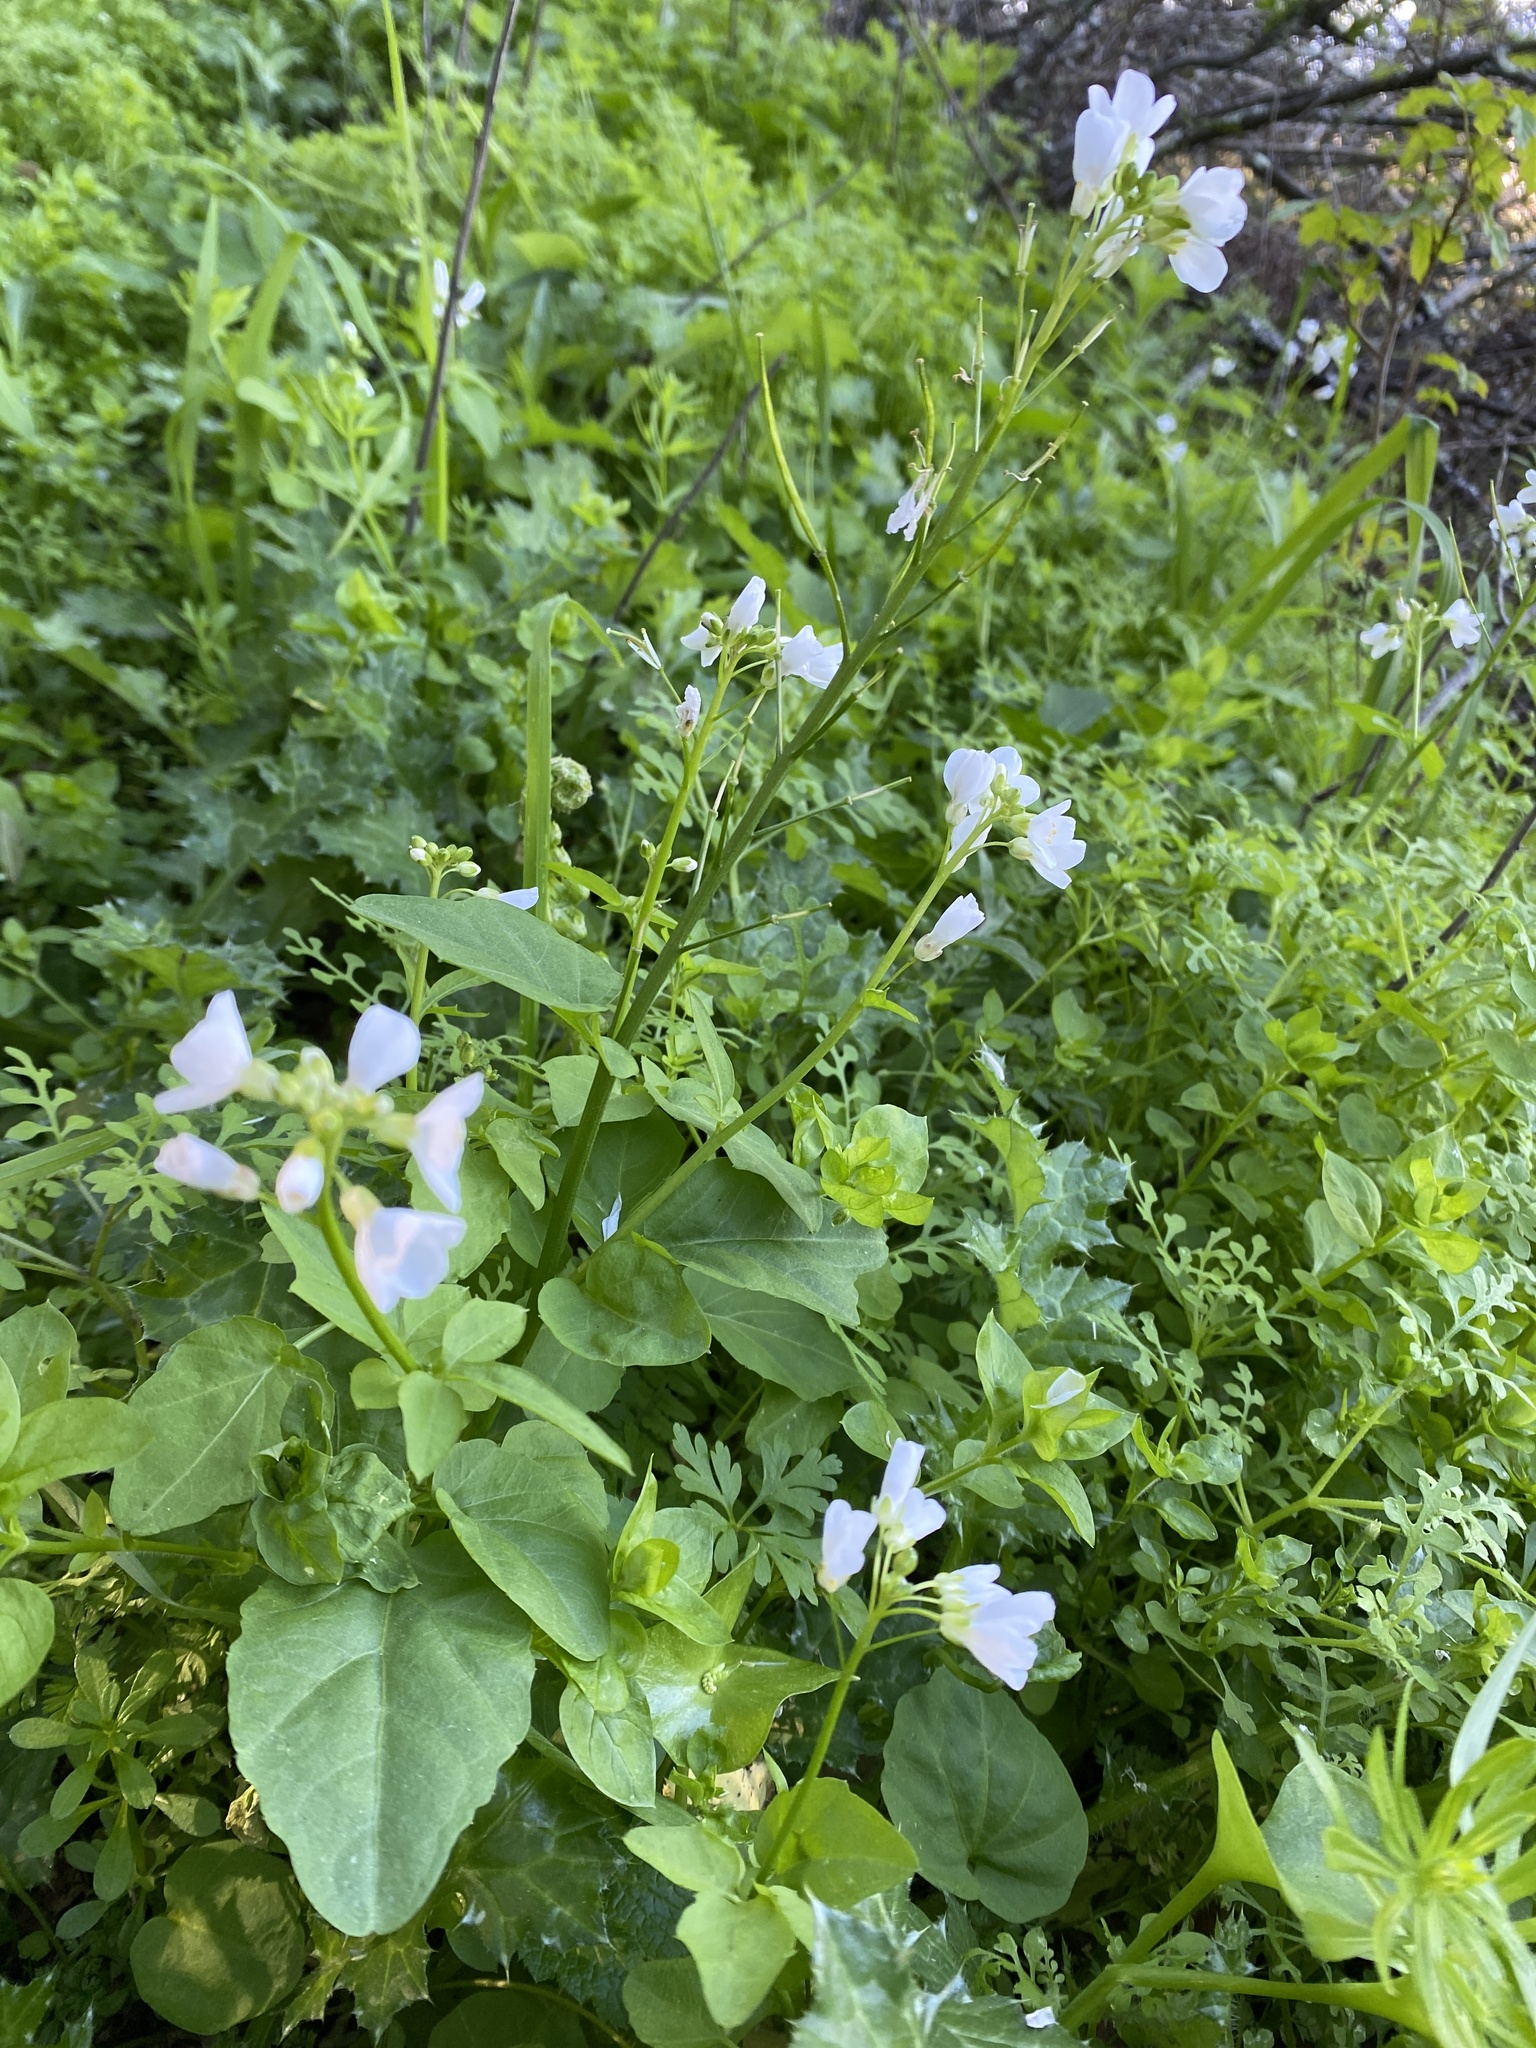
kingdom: Plantae
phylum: Tracheophyta
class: Magnoliopsida
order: Brassicales
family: Brassicaceae
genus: Cardamine
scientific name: Cardamine californica
